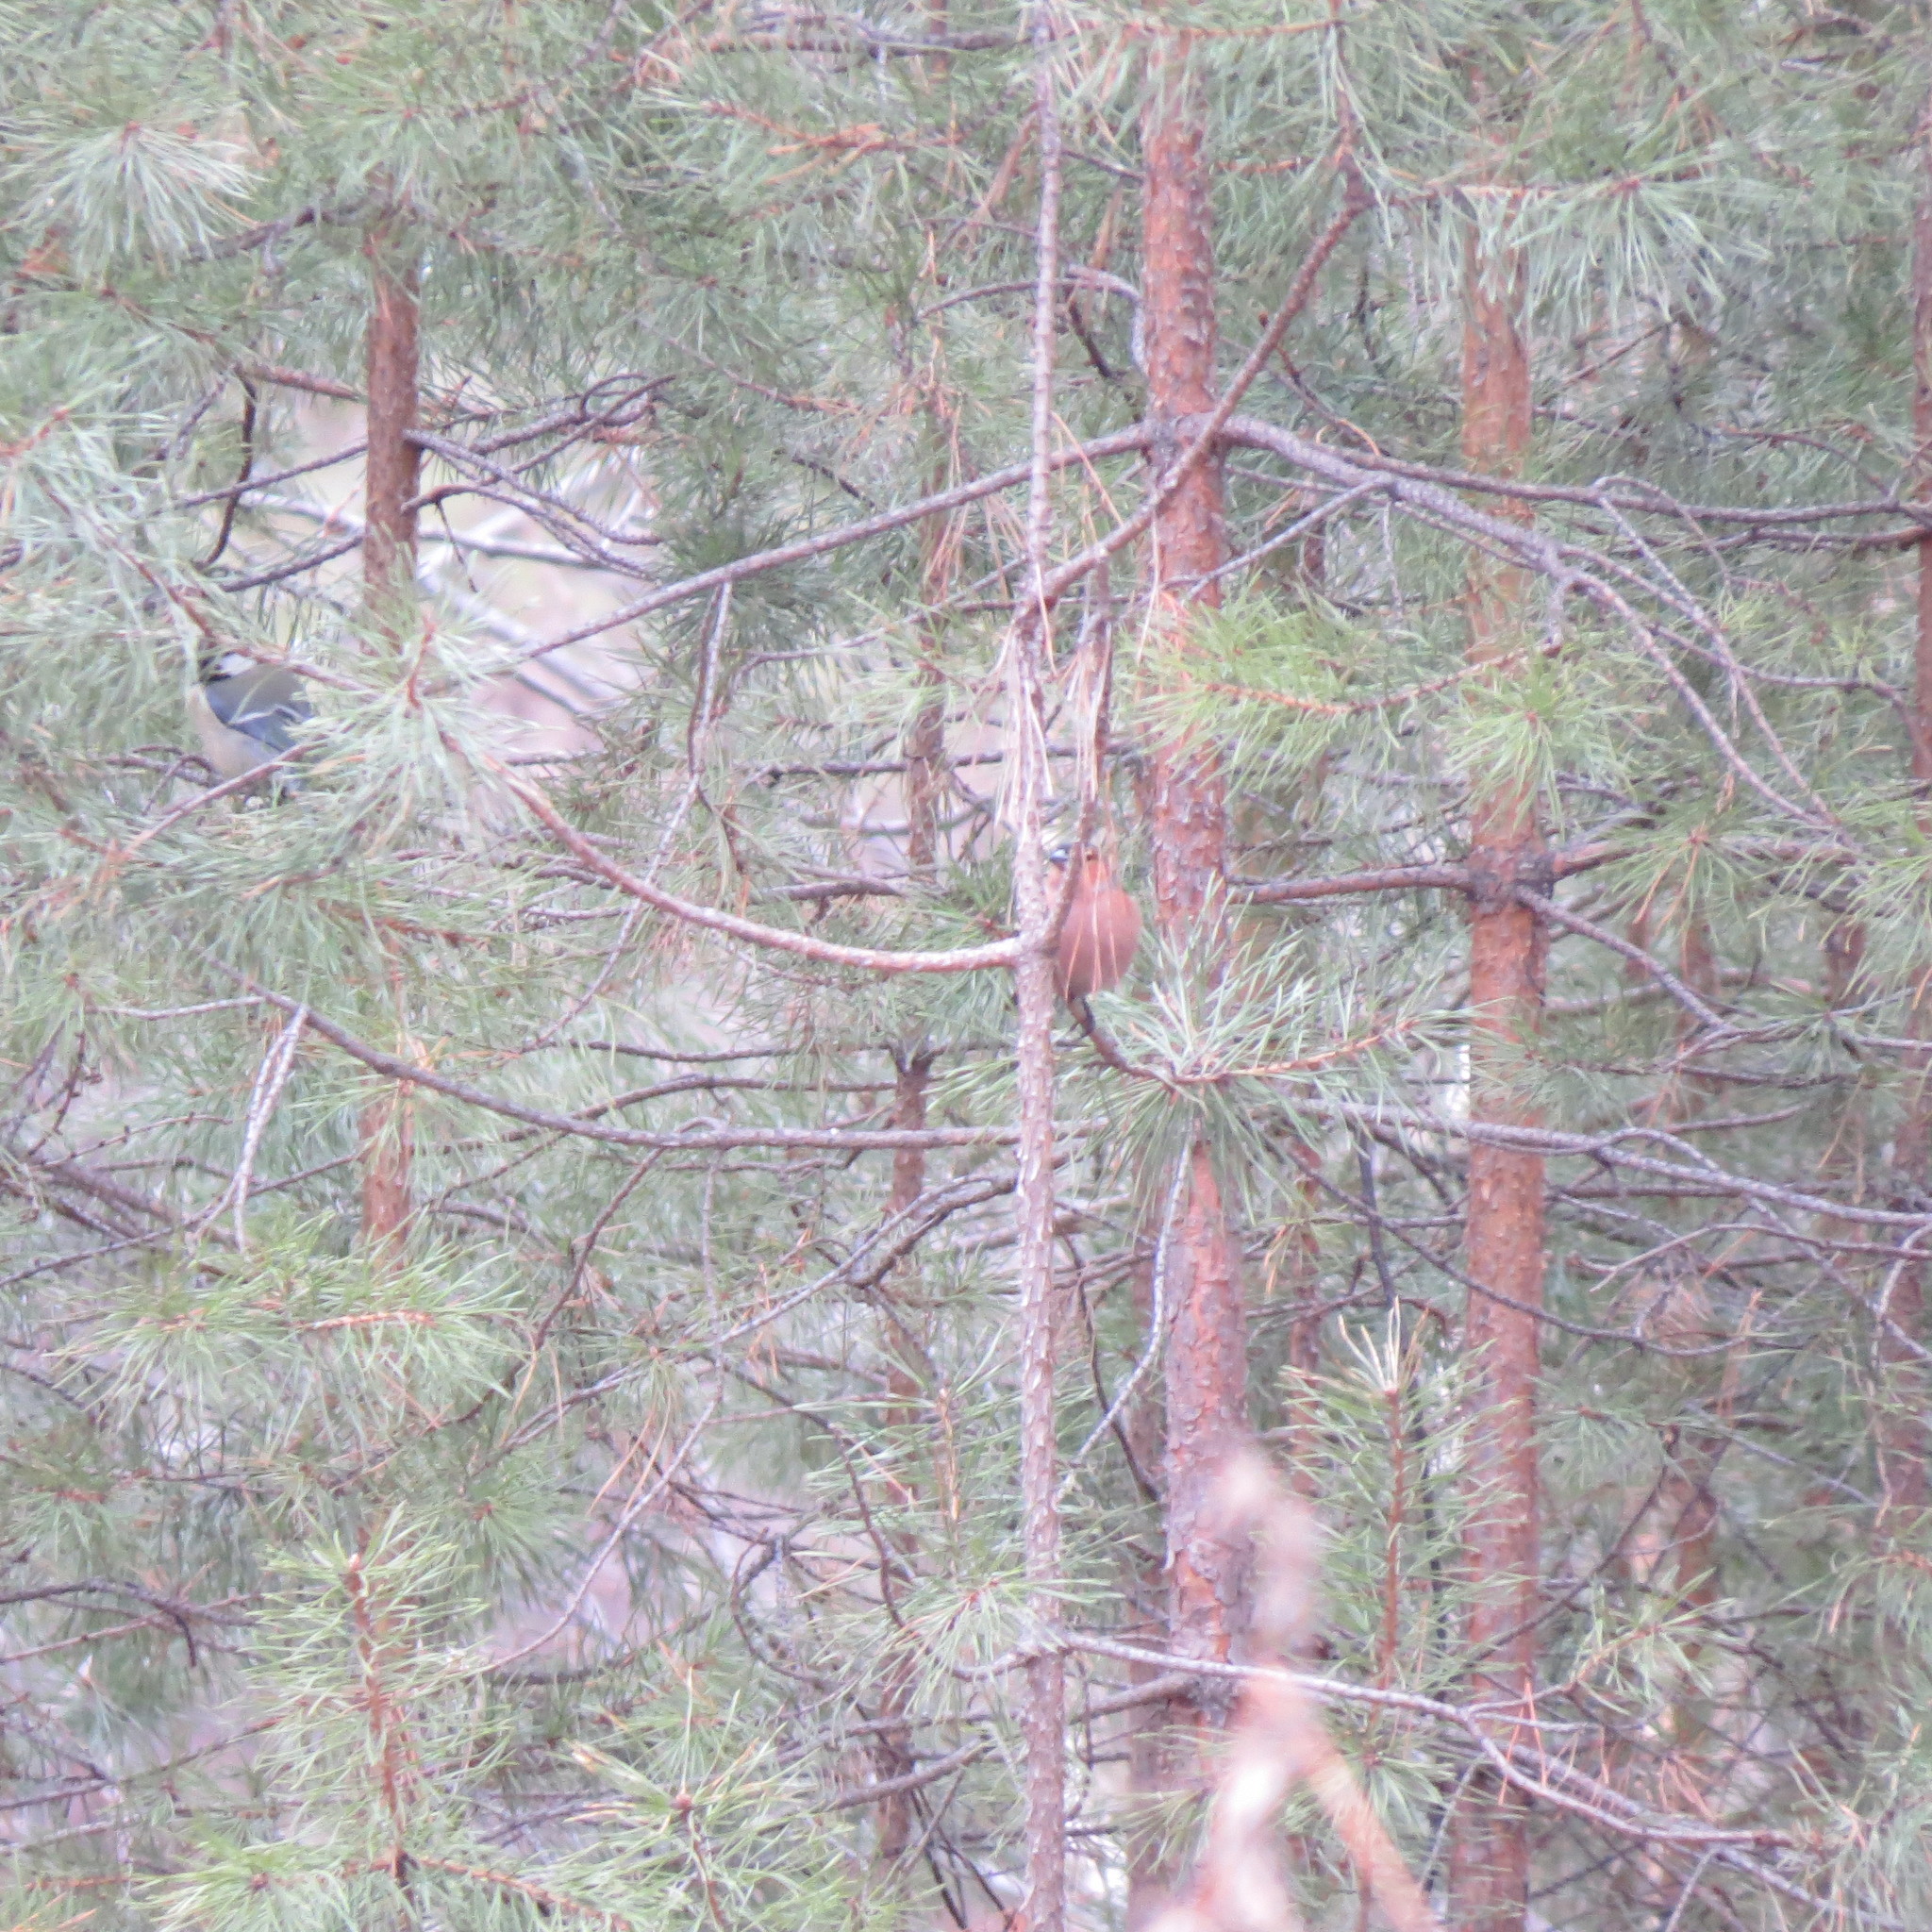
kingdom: Animalia
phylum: Chordata
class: Aves
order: Passeriformes
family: Fringillidae
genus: Fringilla
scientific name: Fringilla coelebs
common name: Common chaffinch
